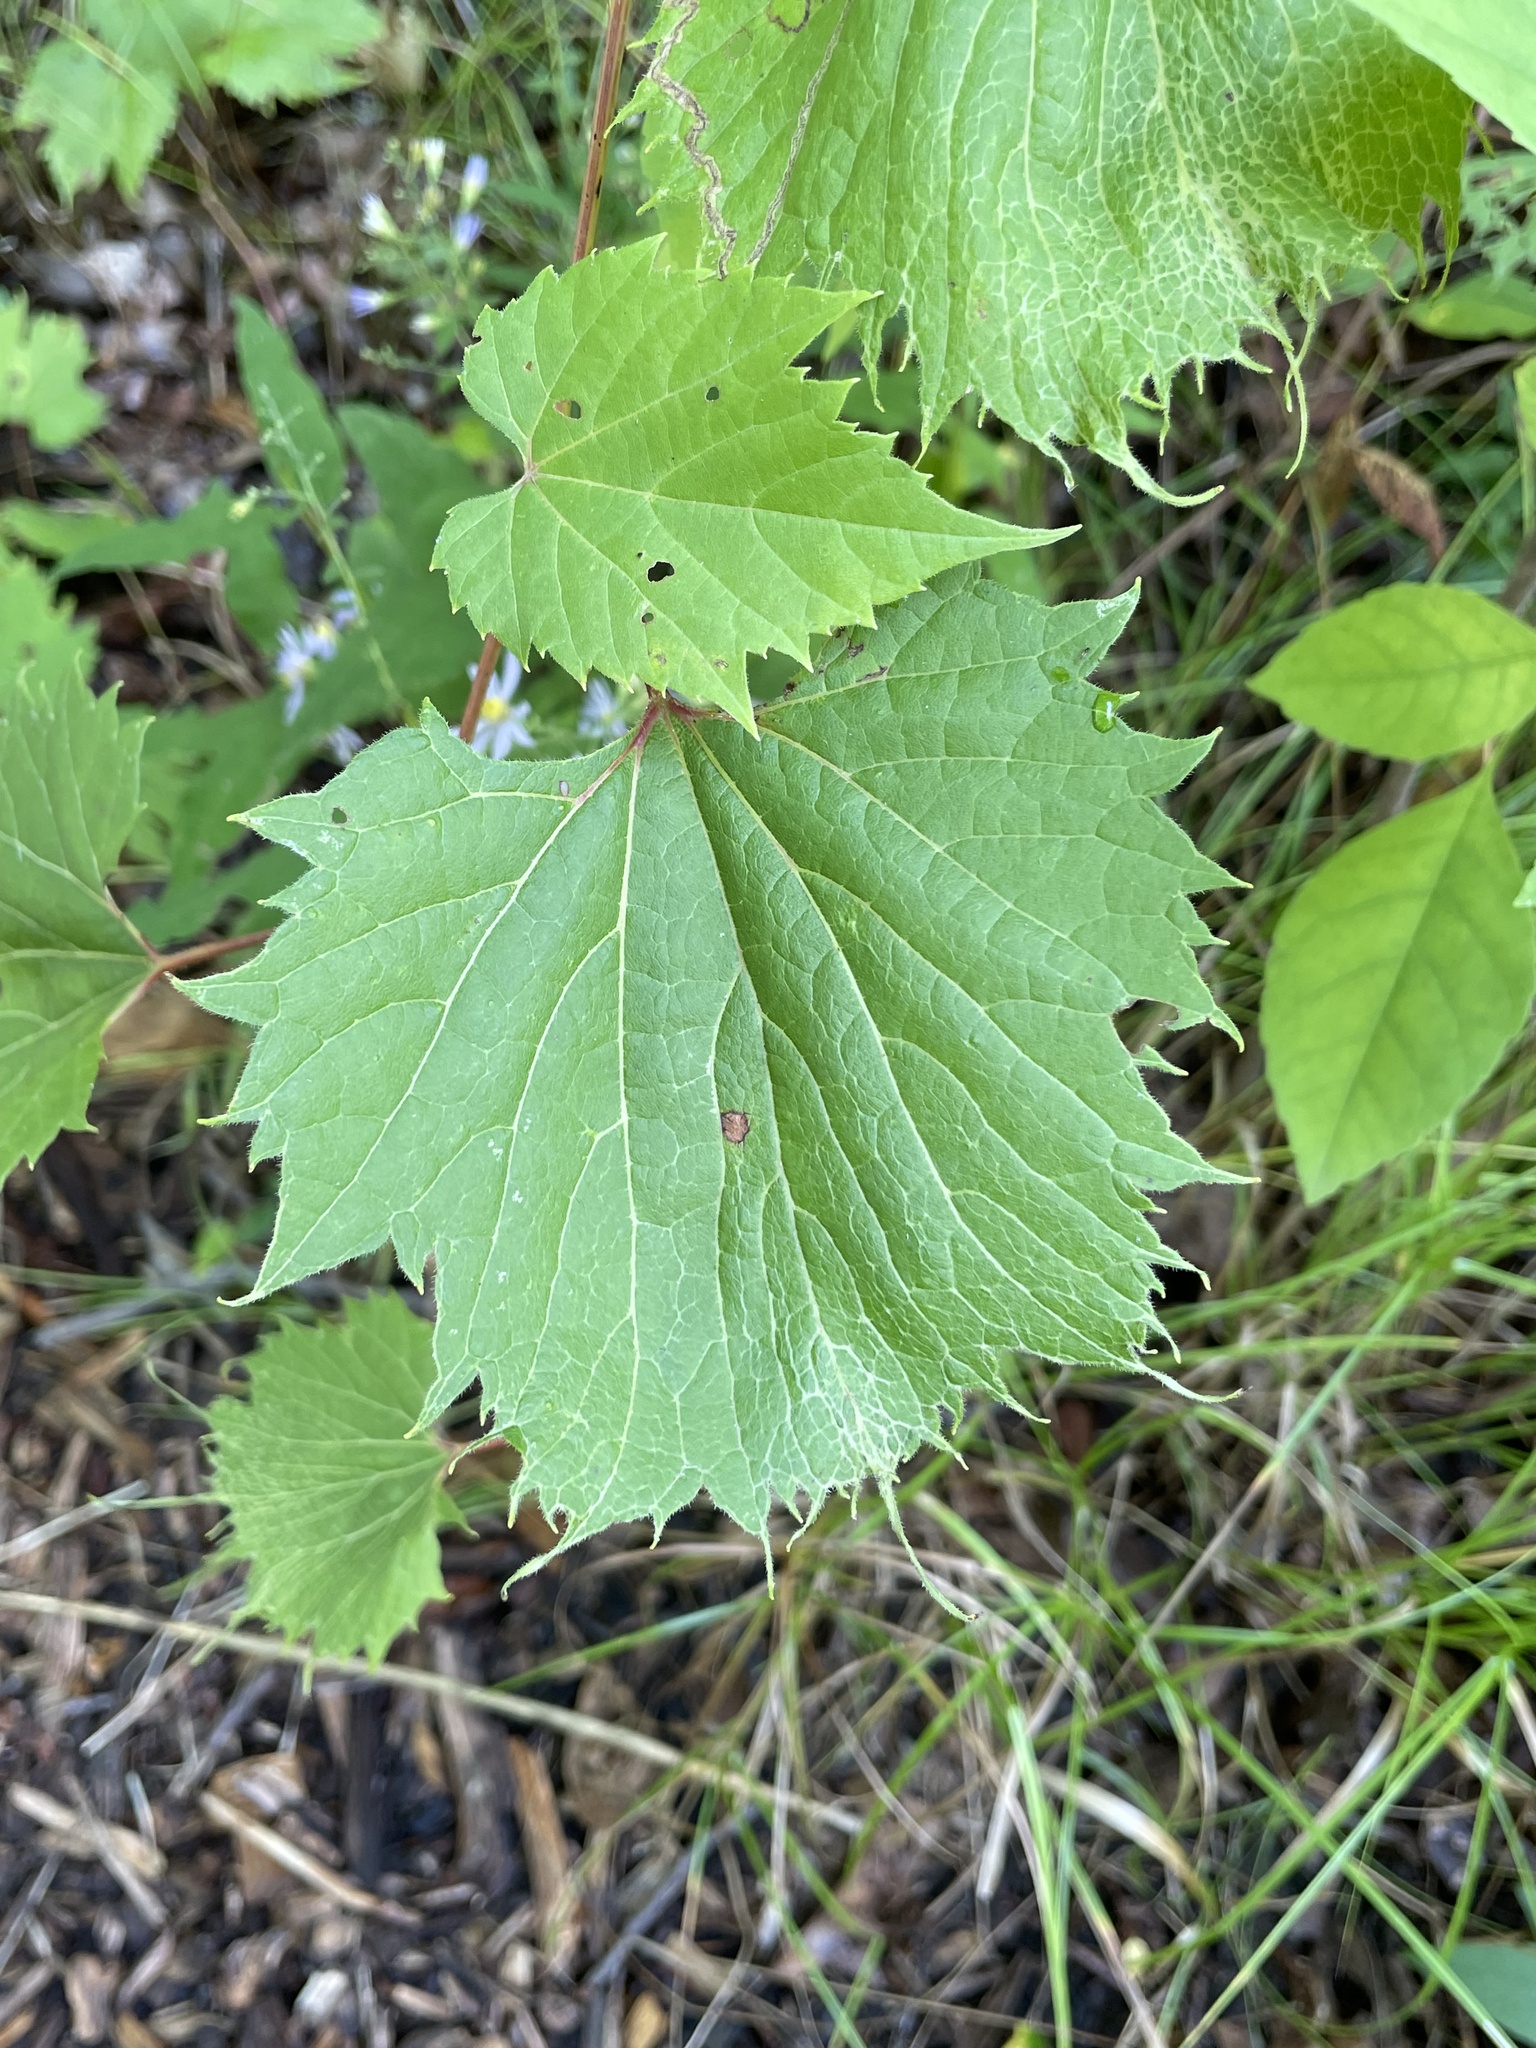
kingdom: Plantae
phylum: Tracheophyta
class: Magnoliopsida
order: Vitales
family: Vitaceae
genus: Vitis
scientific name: Vitis riparia
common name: Frost grape
